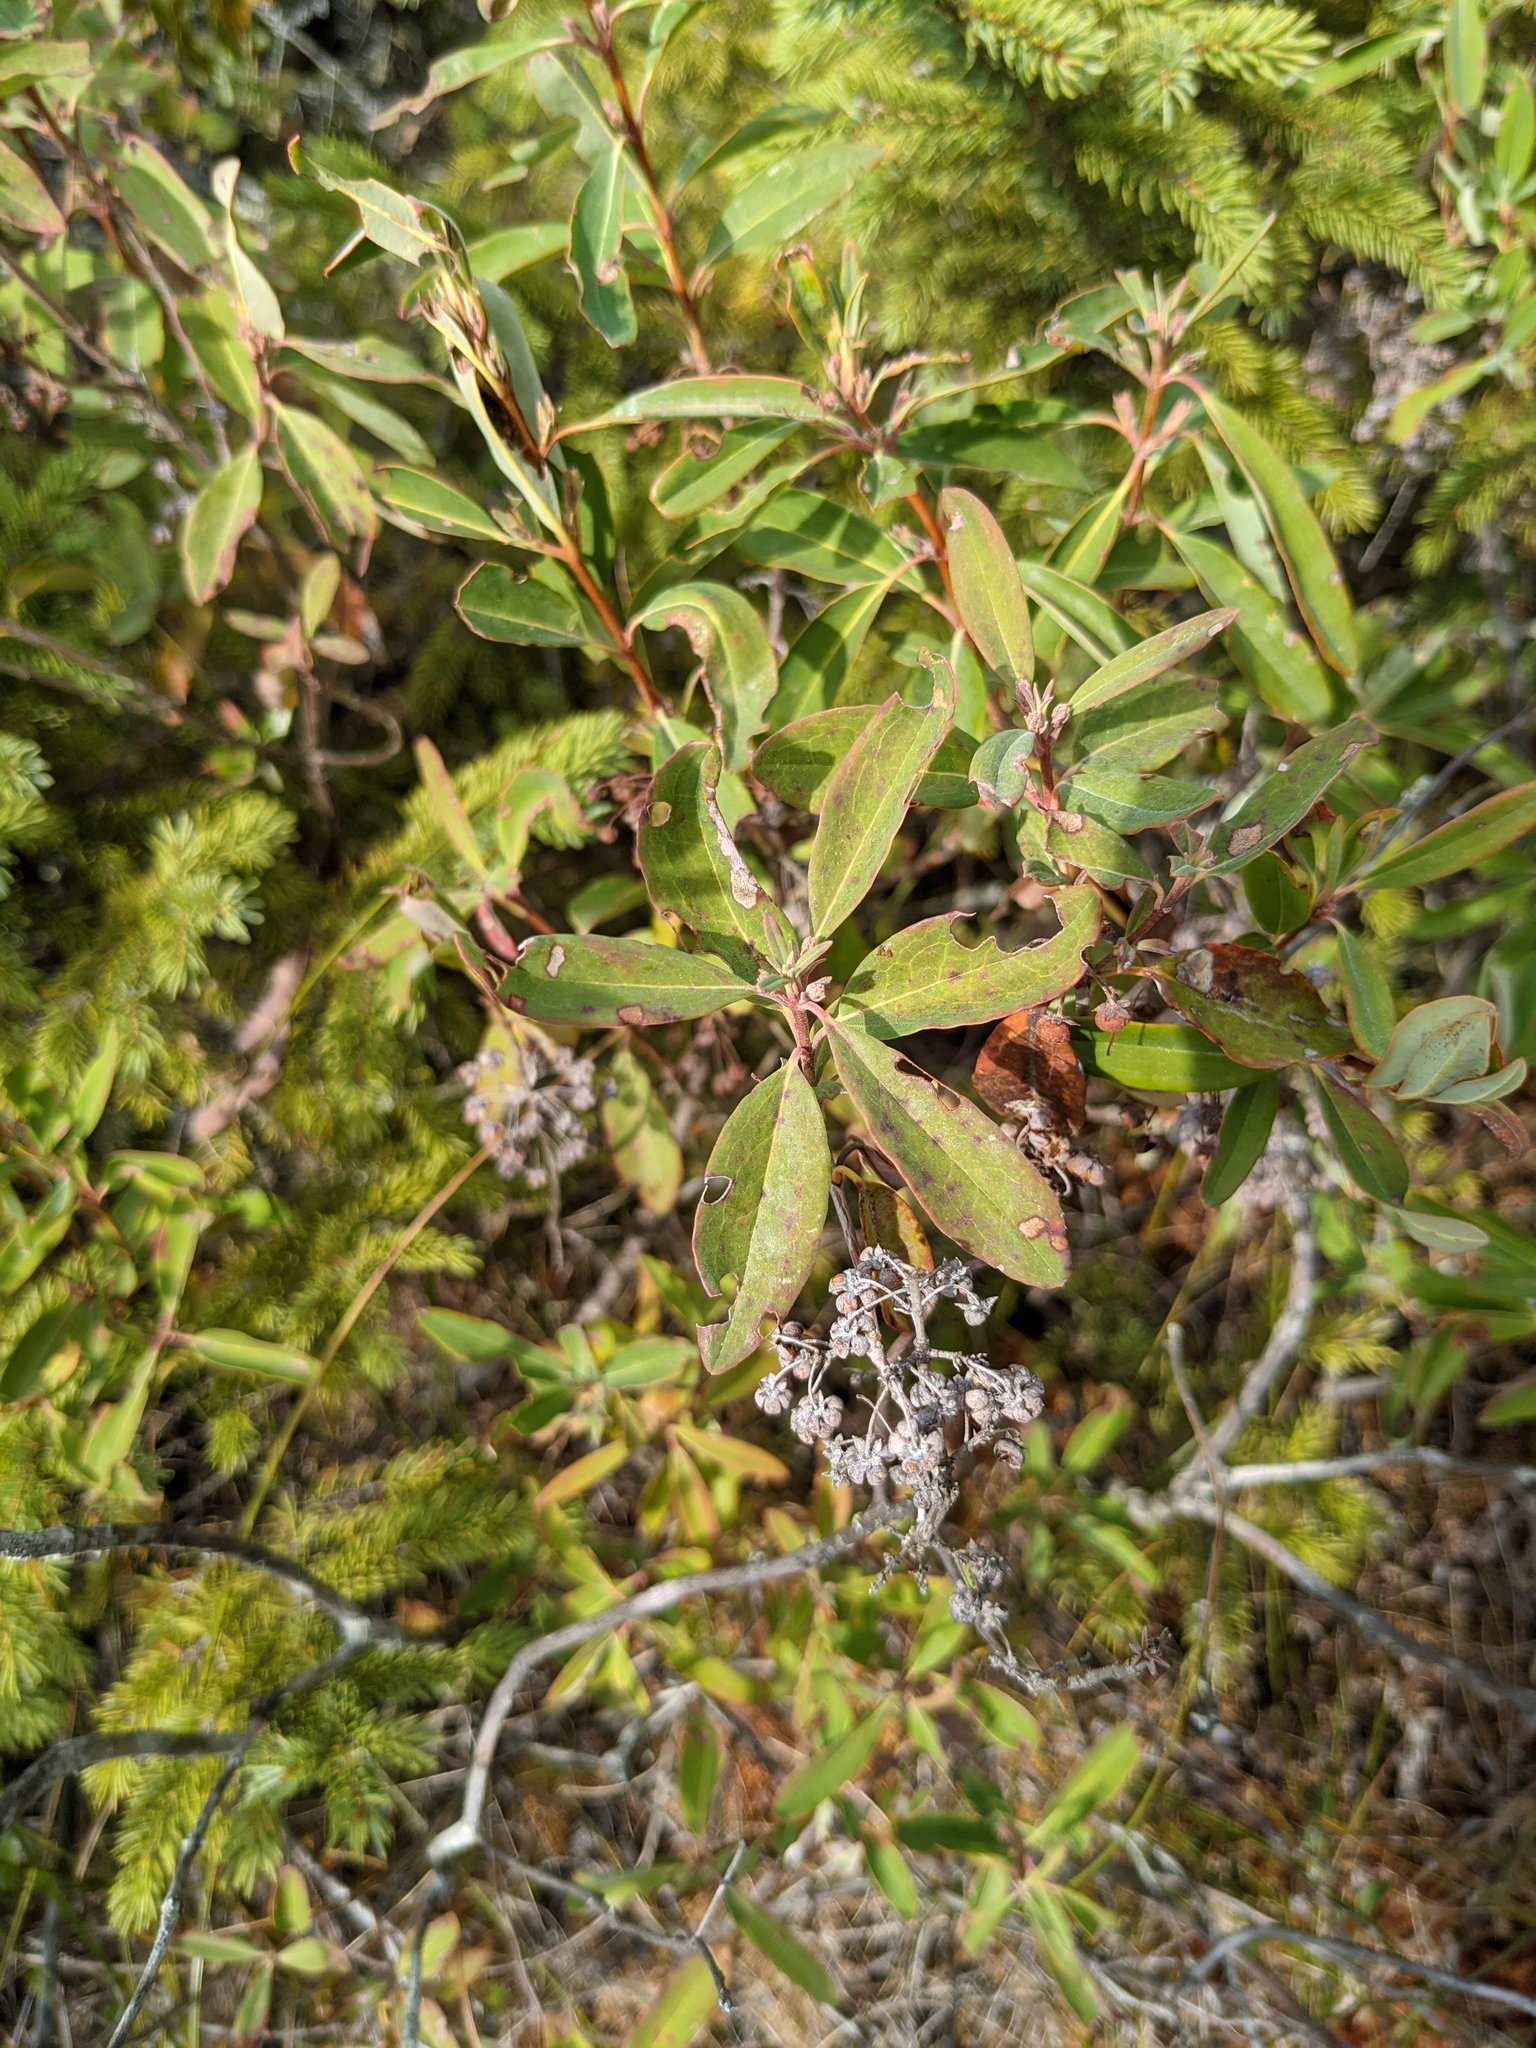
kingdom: Plantae
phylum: Tracheophyta
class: Magnoliopsida
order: Ericales
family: Ericaceae
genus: Kalmia
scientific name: Kalmia angustifolia
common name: Sheep-laurel
